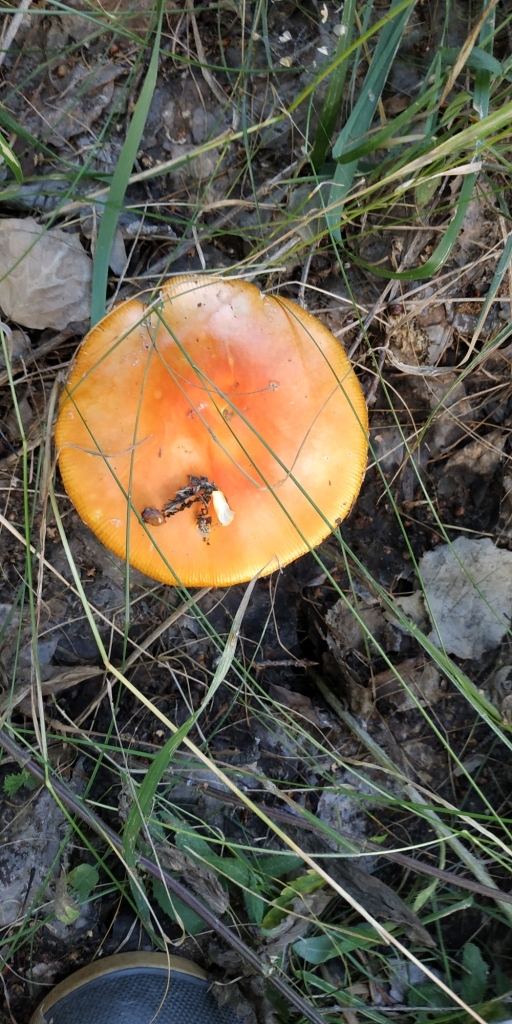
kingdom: Fungi
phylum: Basidiomycota
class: Agaricomycetes
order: Agaricales
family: Amanitaceae
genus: Amanita
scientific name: Amanita muscaria
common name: Fly agaric
